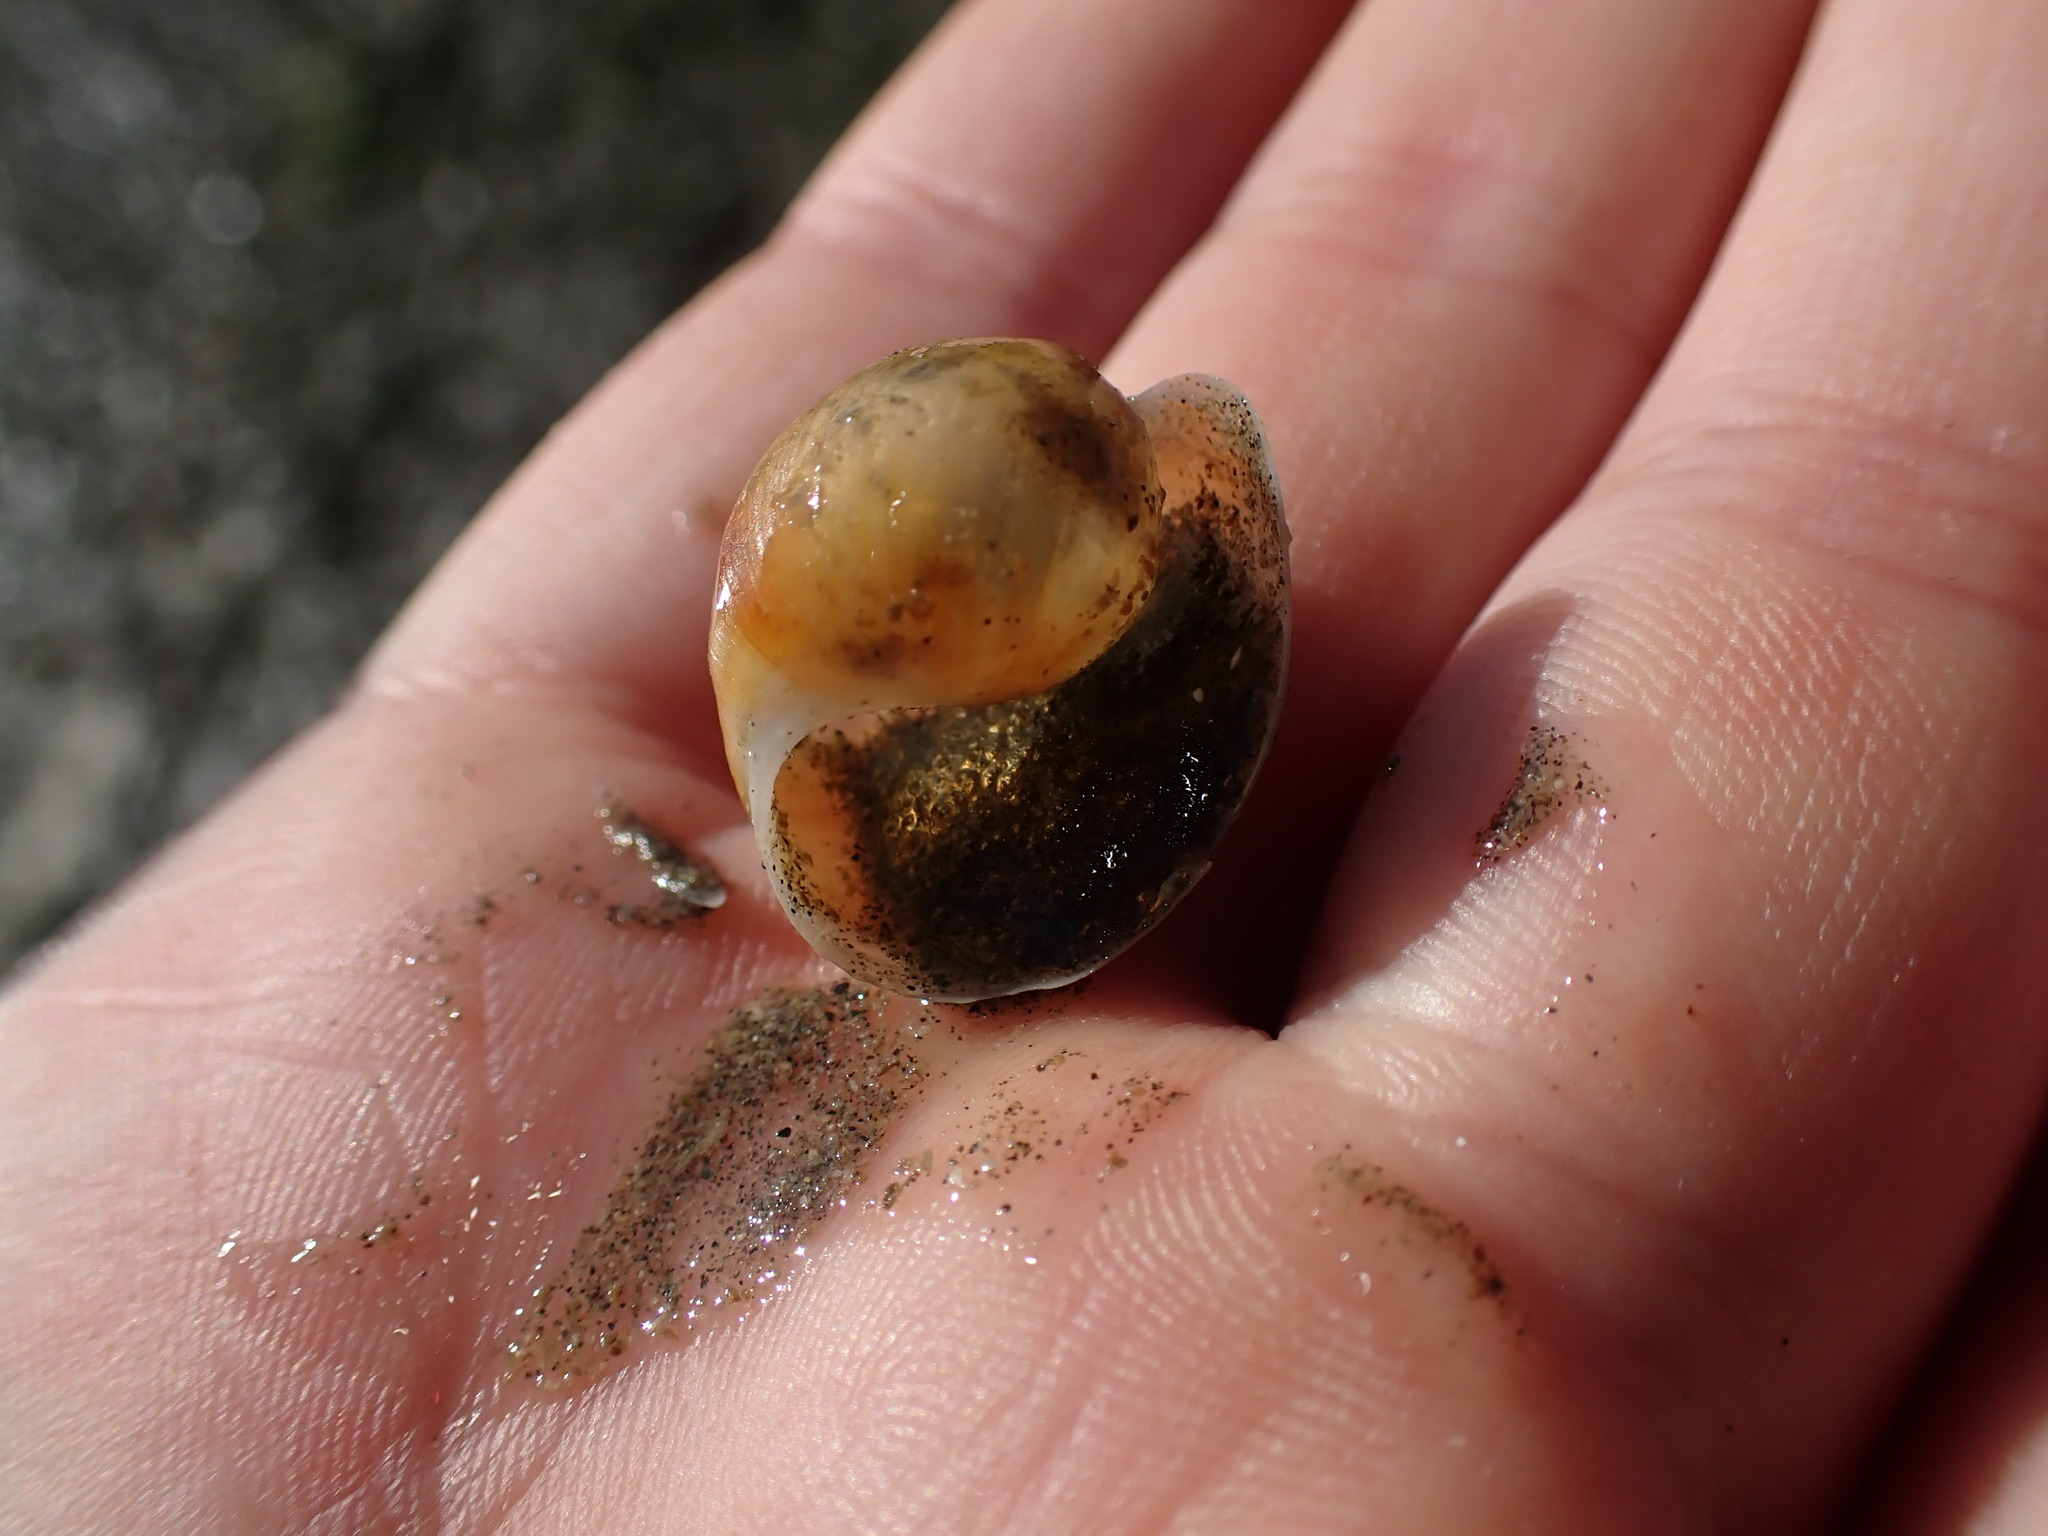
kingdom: Animalia
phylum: Mollusca
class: Gastropoda
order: Cephalaspidea
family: Haminoeidae
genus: Papawera
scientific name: Papawera zelandiae
